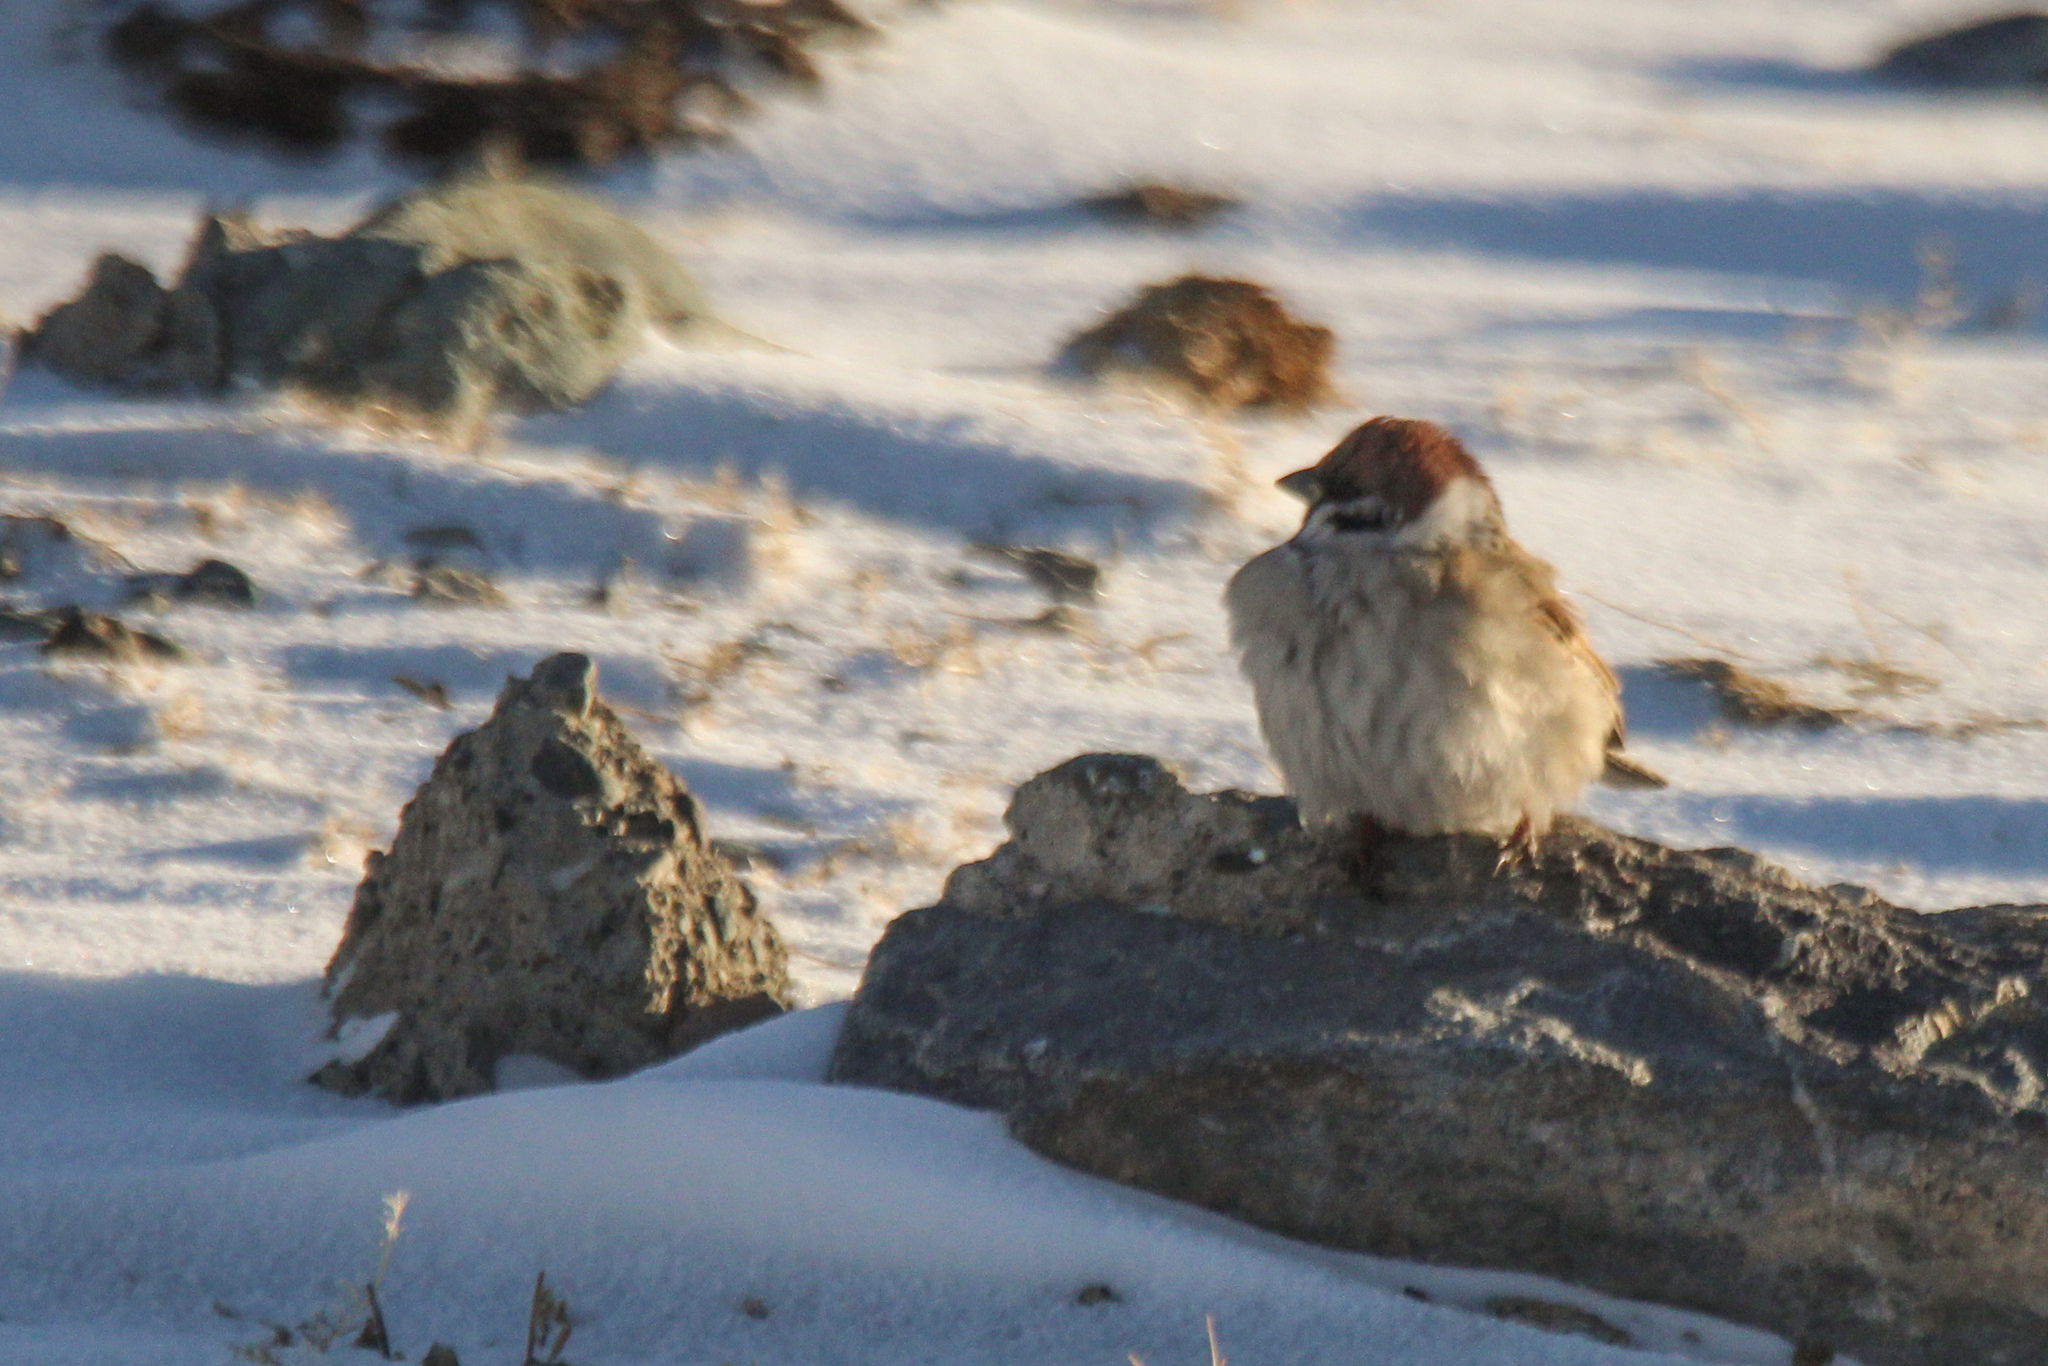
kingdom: Animalia
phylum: Chordata
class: Aves
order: Passeriformes
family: Passeridae
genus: Passer
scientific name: Passer montanus
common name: Eurasian tree sparrow
